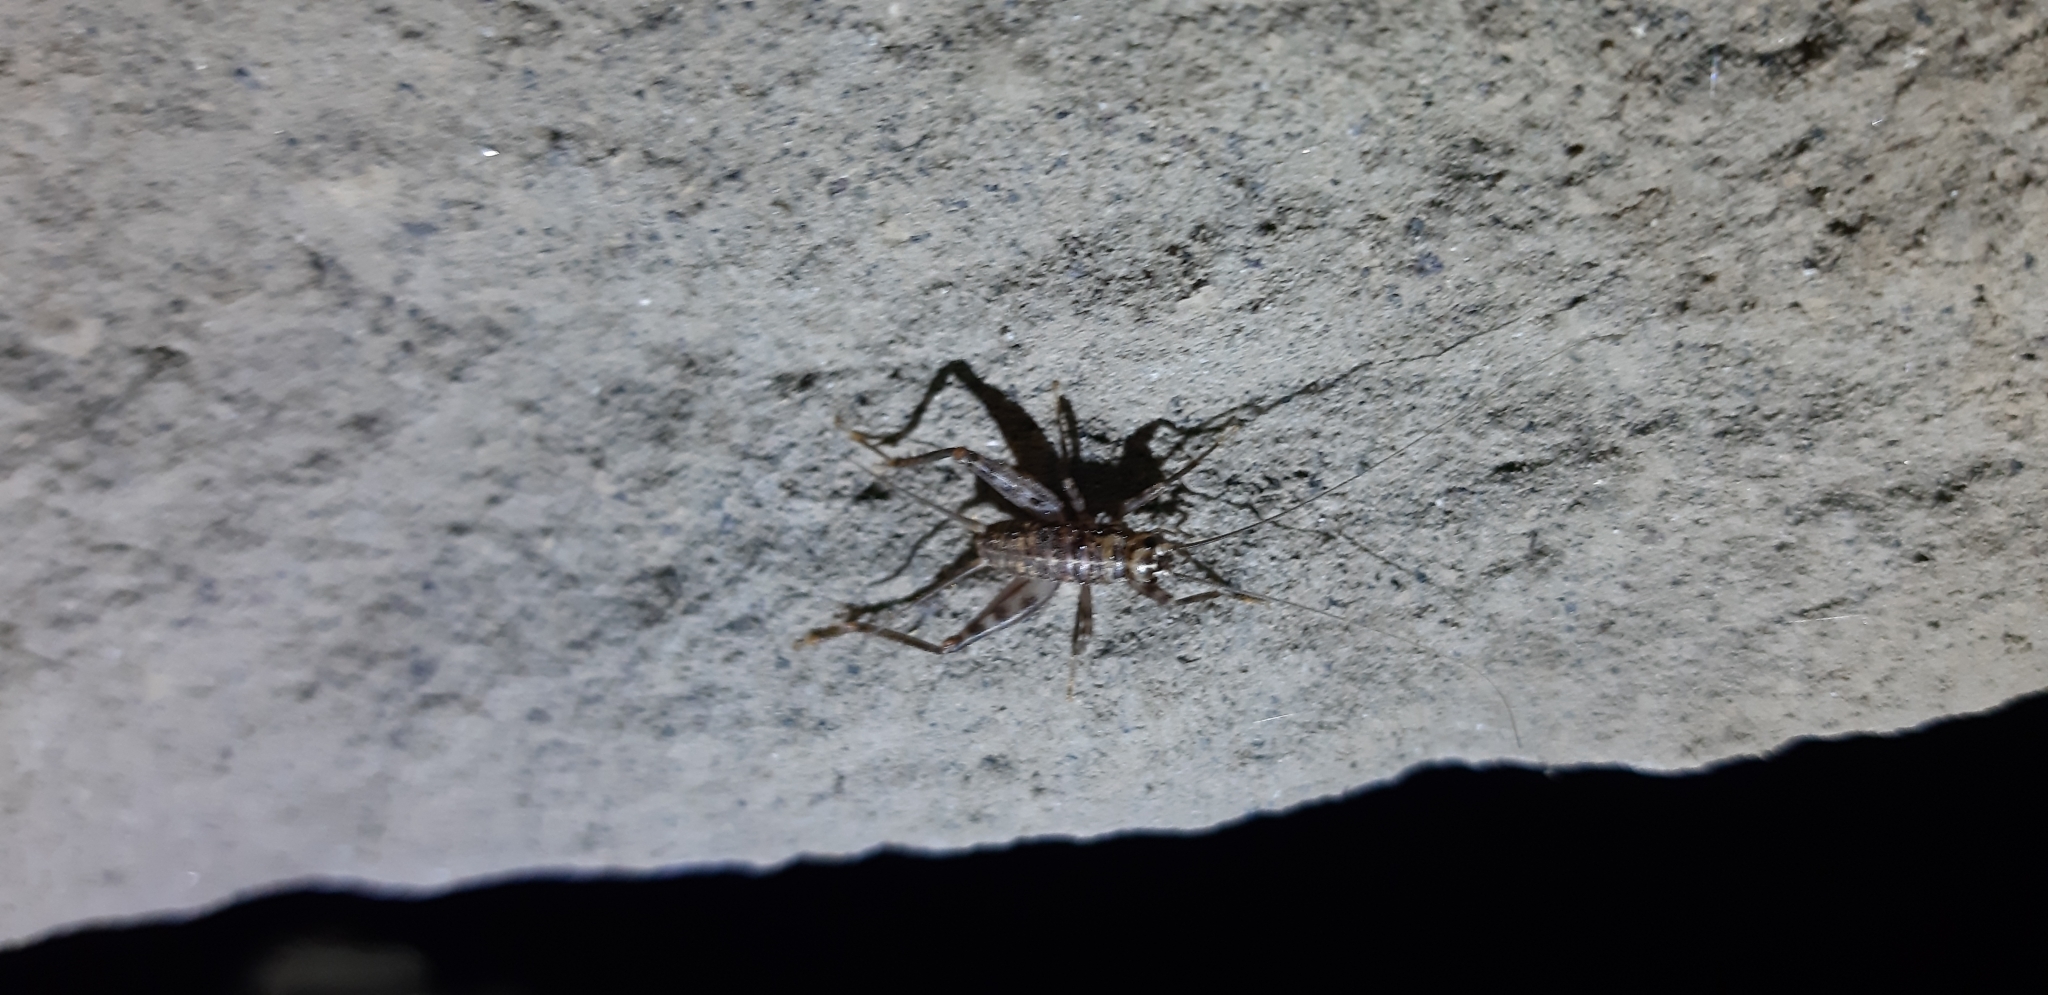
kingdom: Animalia
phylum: Arthropoda
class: Insecta
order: Orthoptera
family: Gryllidae
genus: Gryllomorpha
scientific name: Gryllomorpha dalmatina
